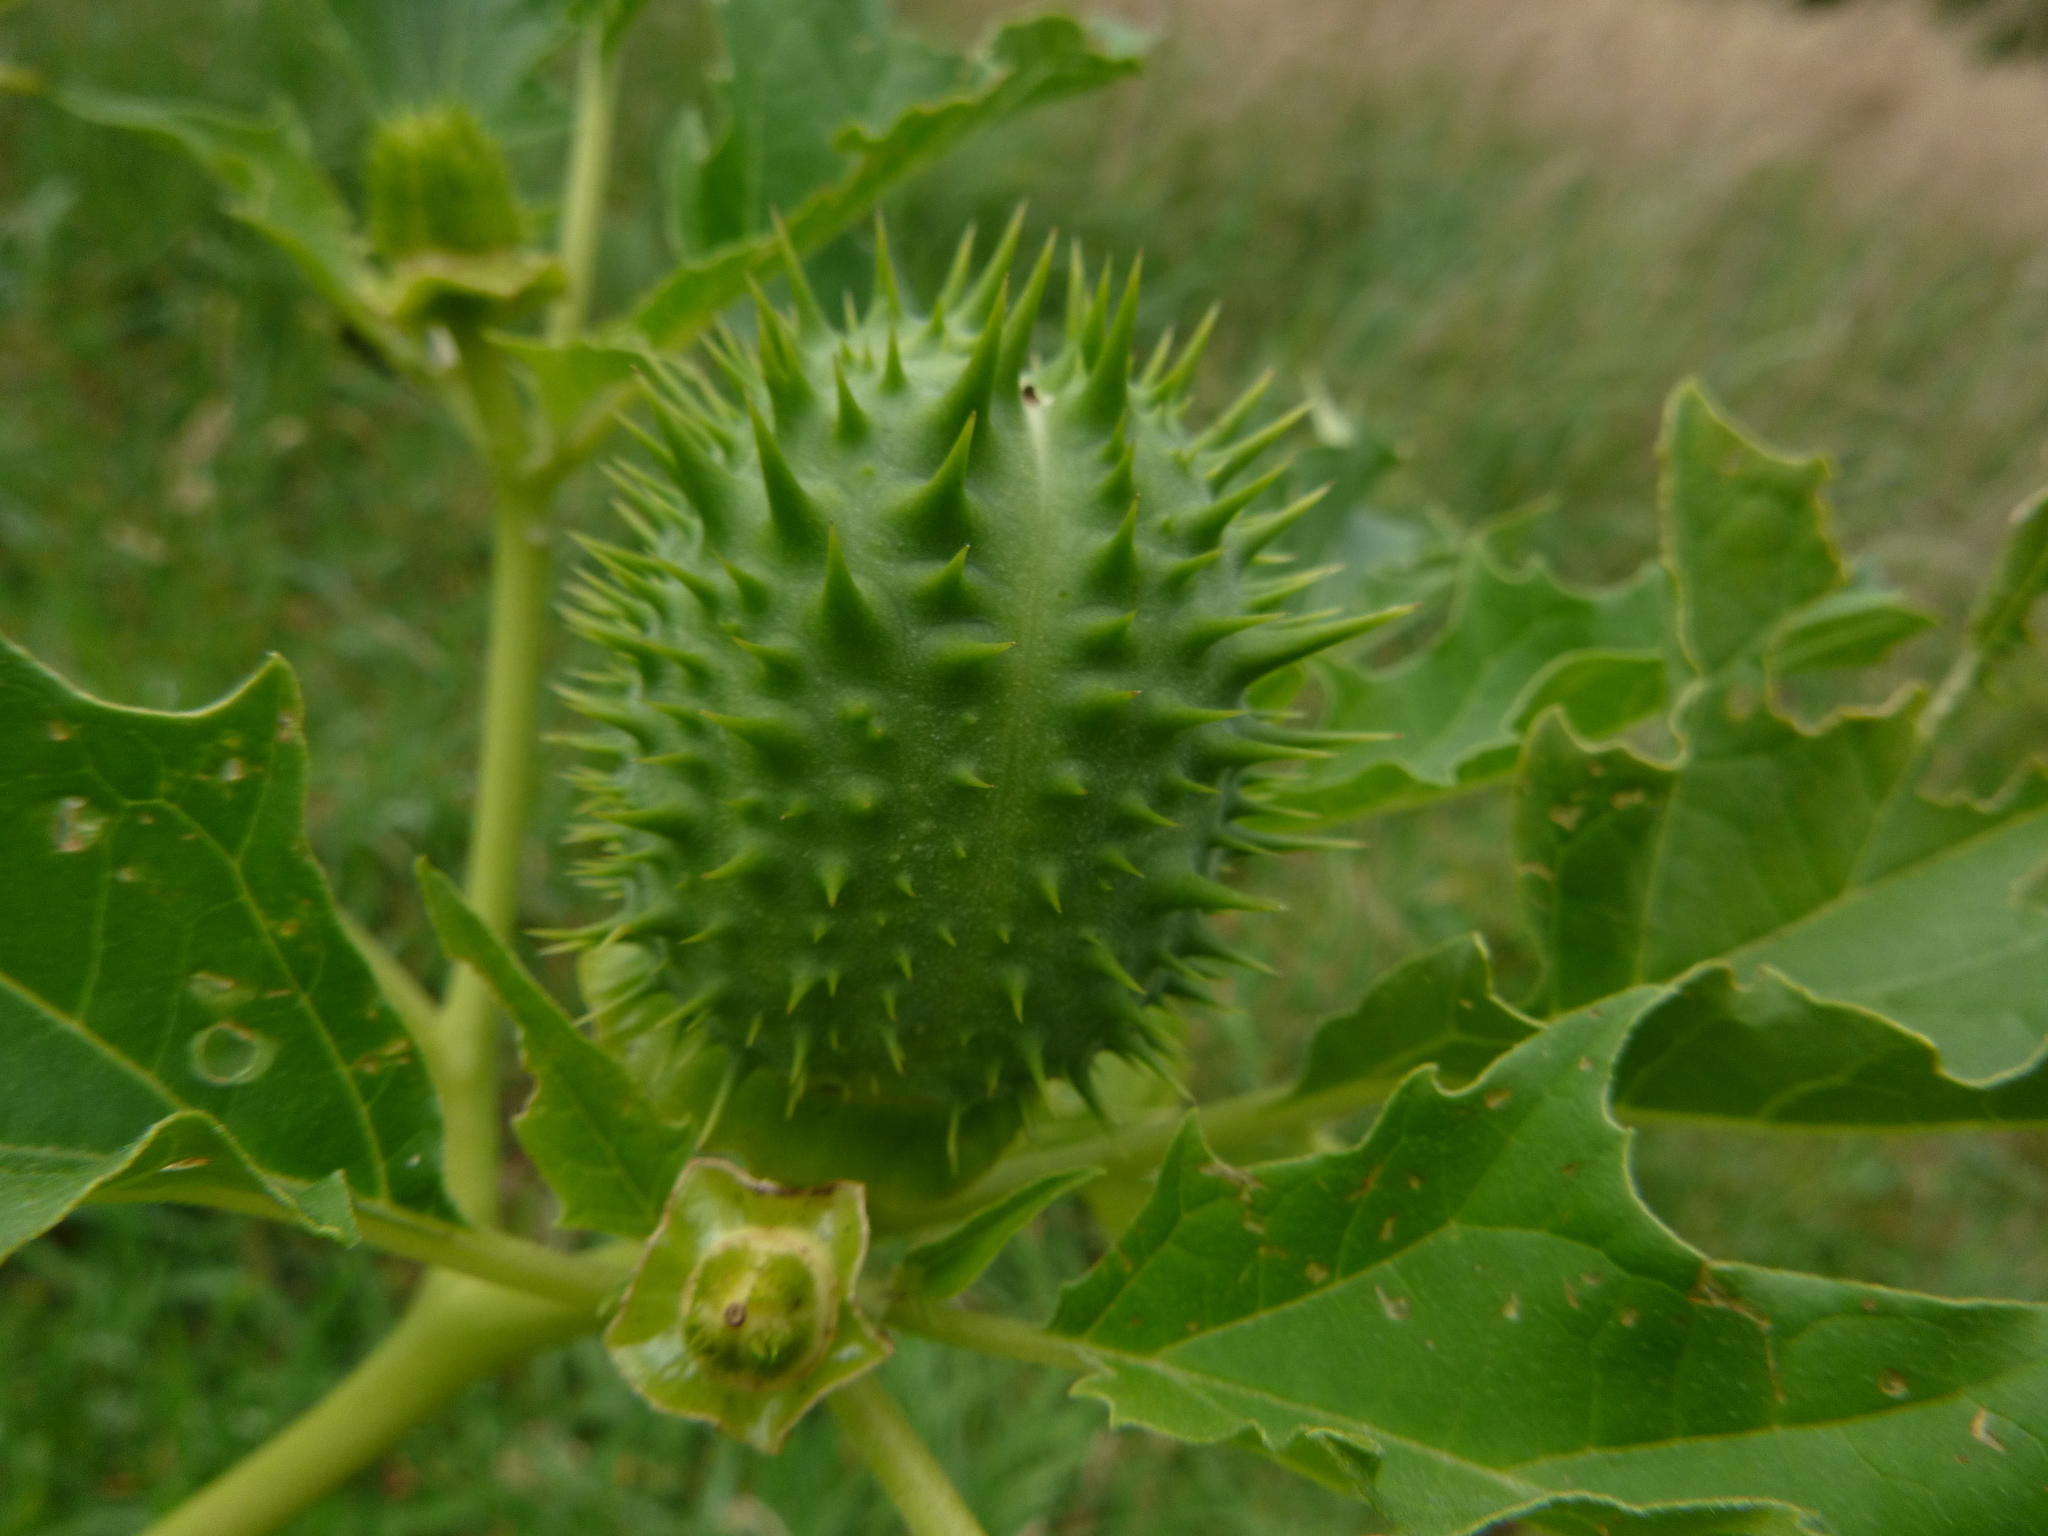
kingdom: Plantae
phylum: Tracheophyta
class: Magnoliopsida
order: Solanales
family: Solanaceae
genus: Datura
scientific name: Datura stramonium
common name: Thorn-apple
